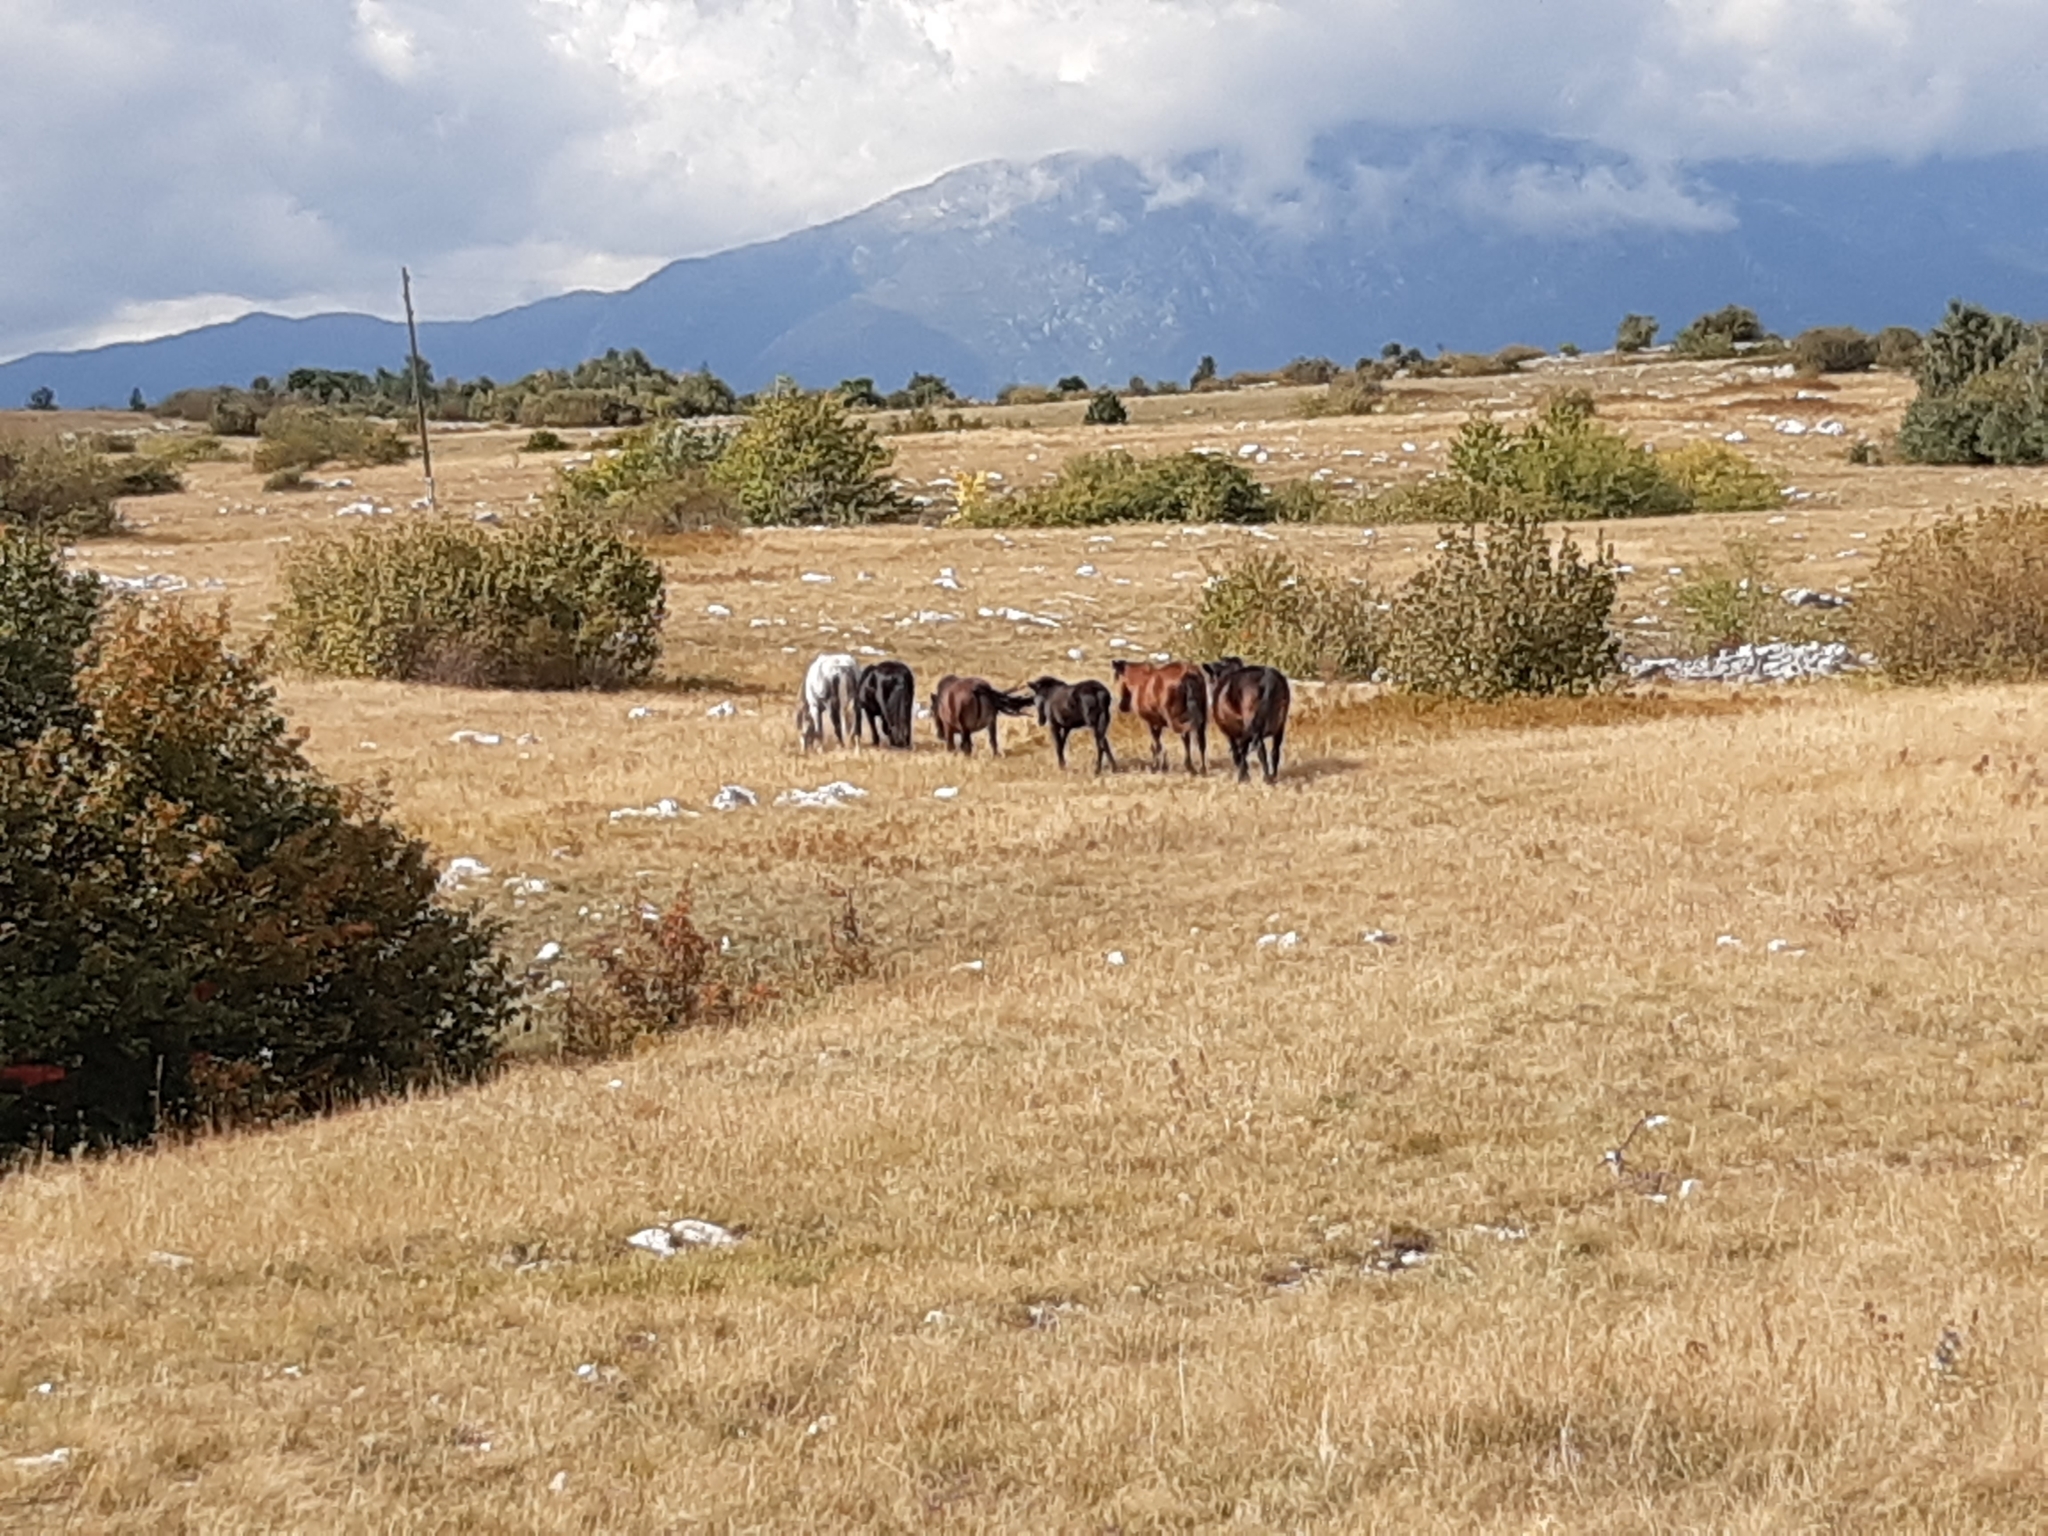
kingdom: Animalia
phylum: Chordata
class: Mammalia
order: Perissodactyla
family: Equidae
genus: Equus
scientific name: Equus caballus
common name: Horse
